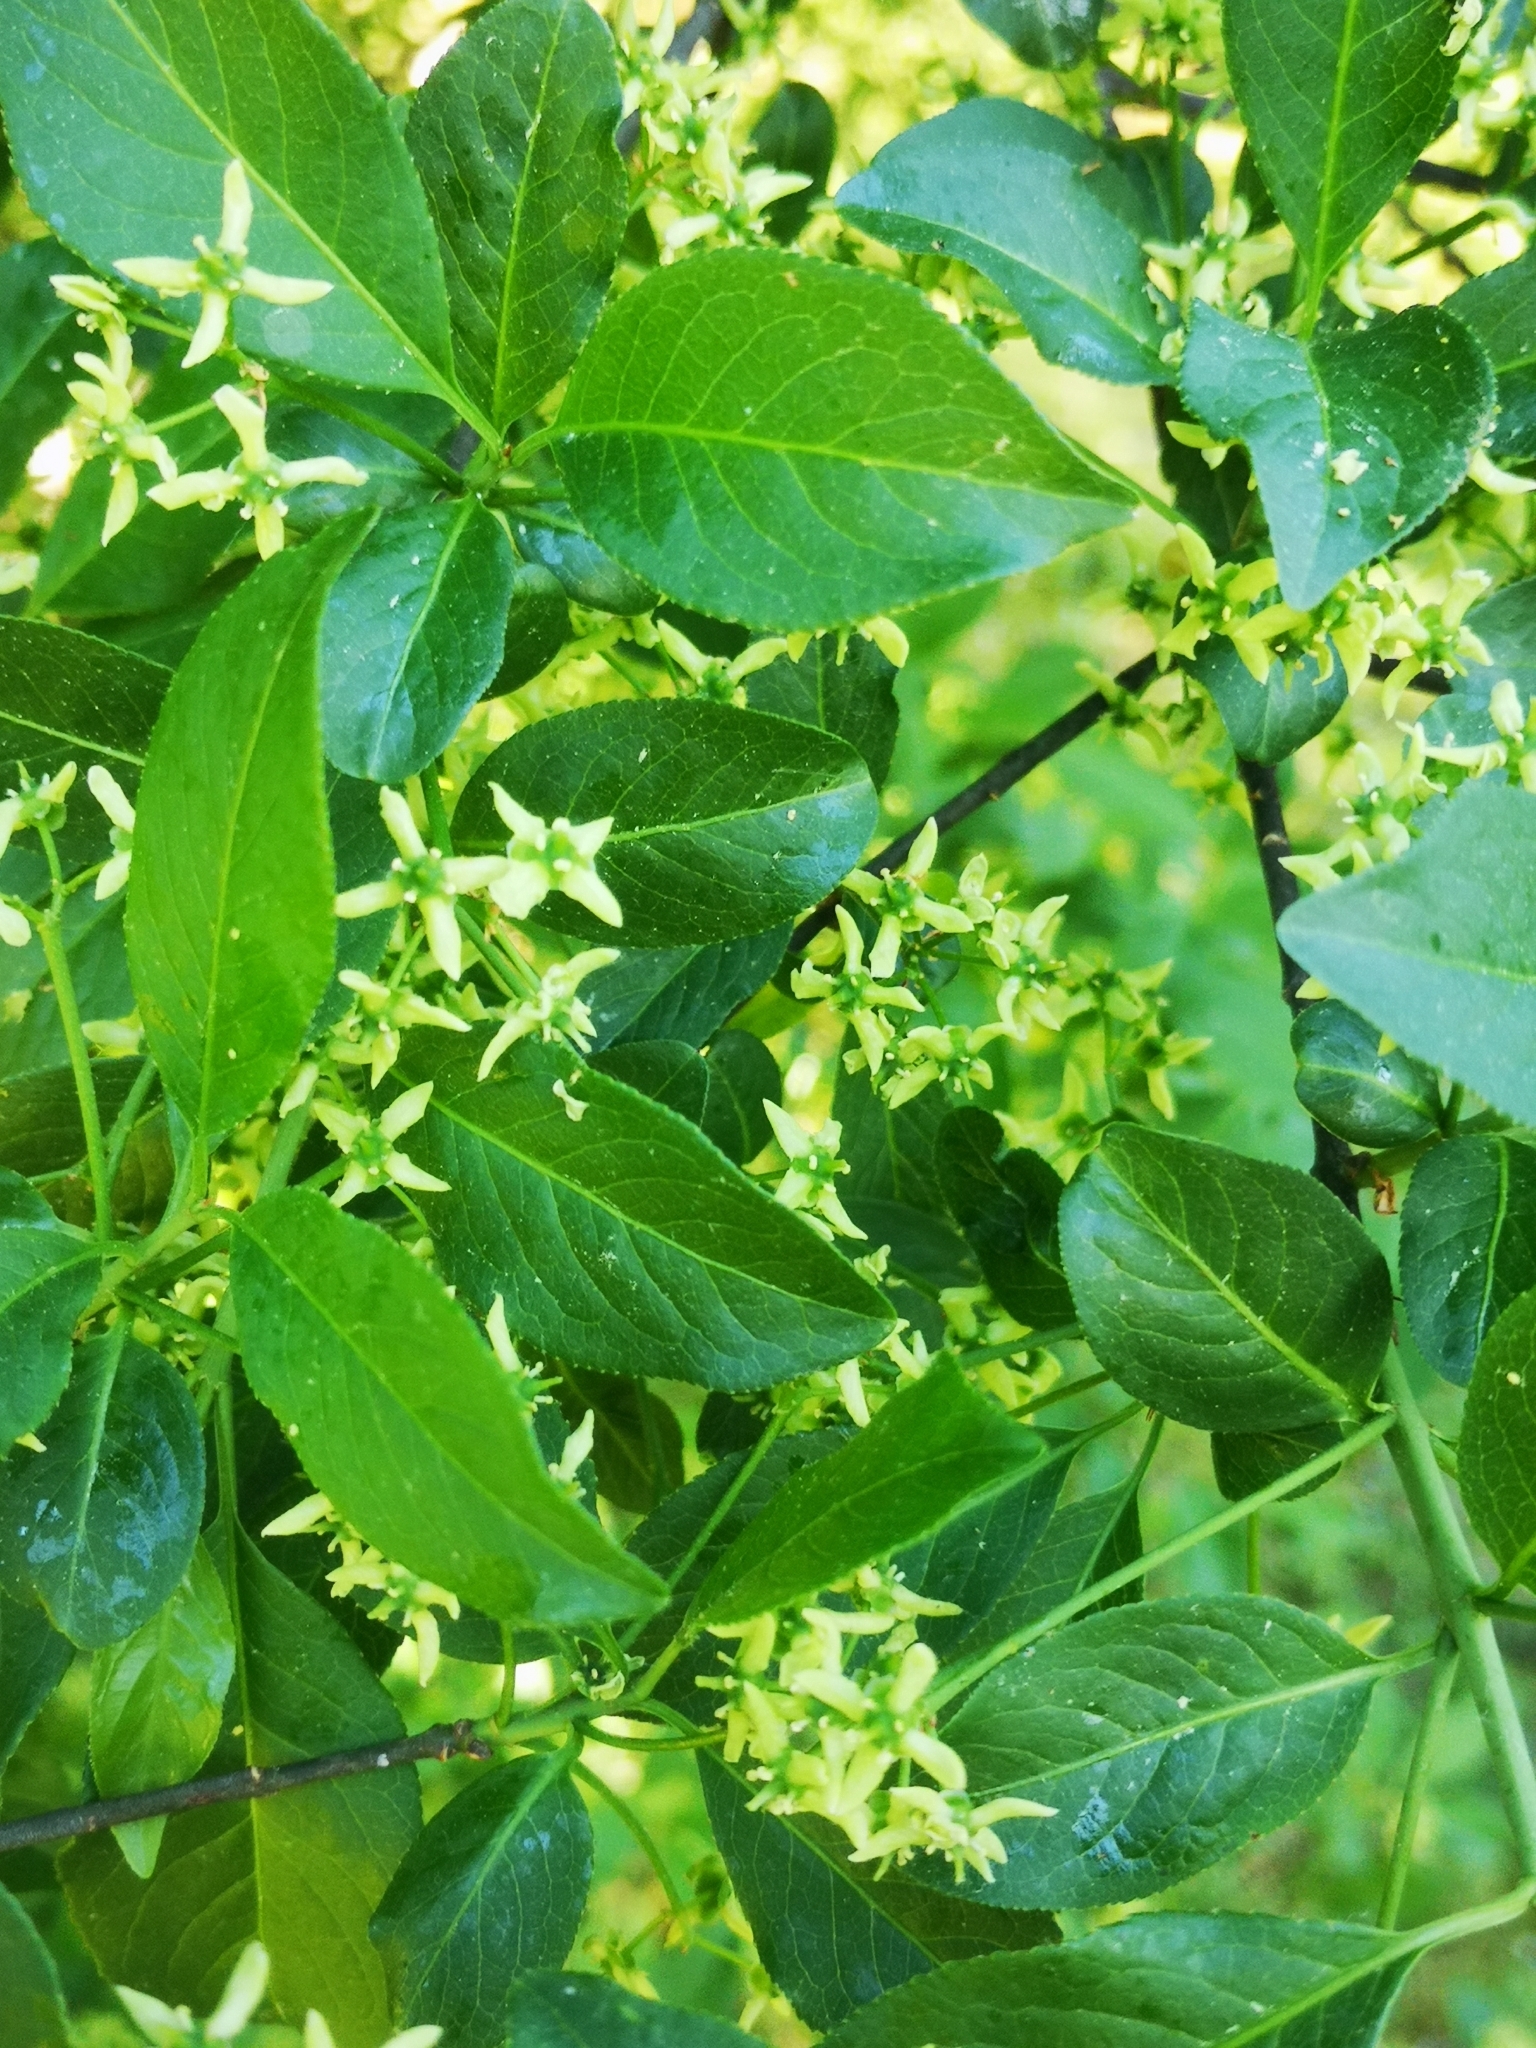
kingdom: Plantae
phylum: Tracheophyta
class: Magnoliopsida
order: Celastrales
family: Celastraceae
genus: Euonymus
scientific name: Euonymus europaeus
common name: Spindle
